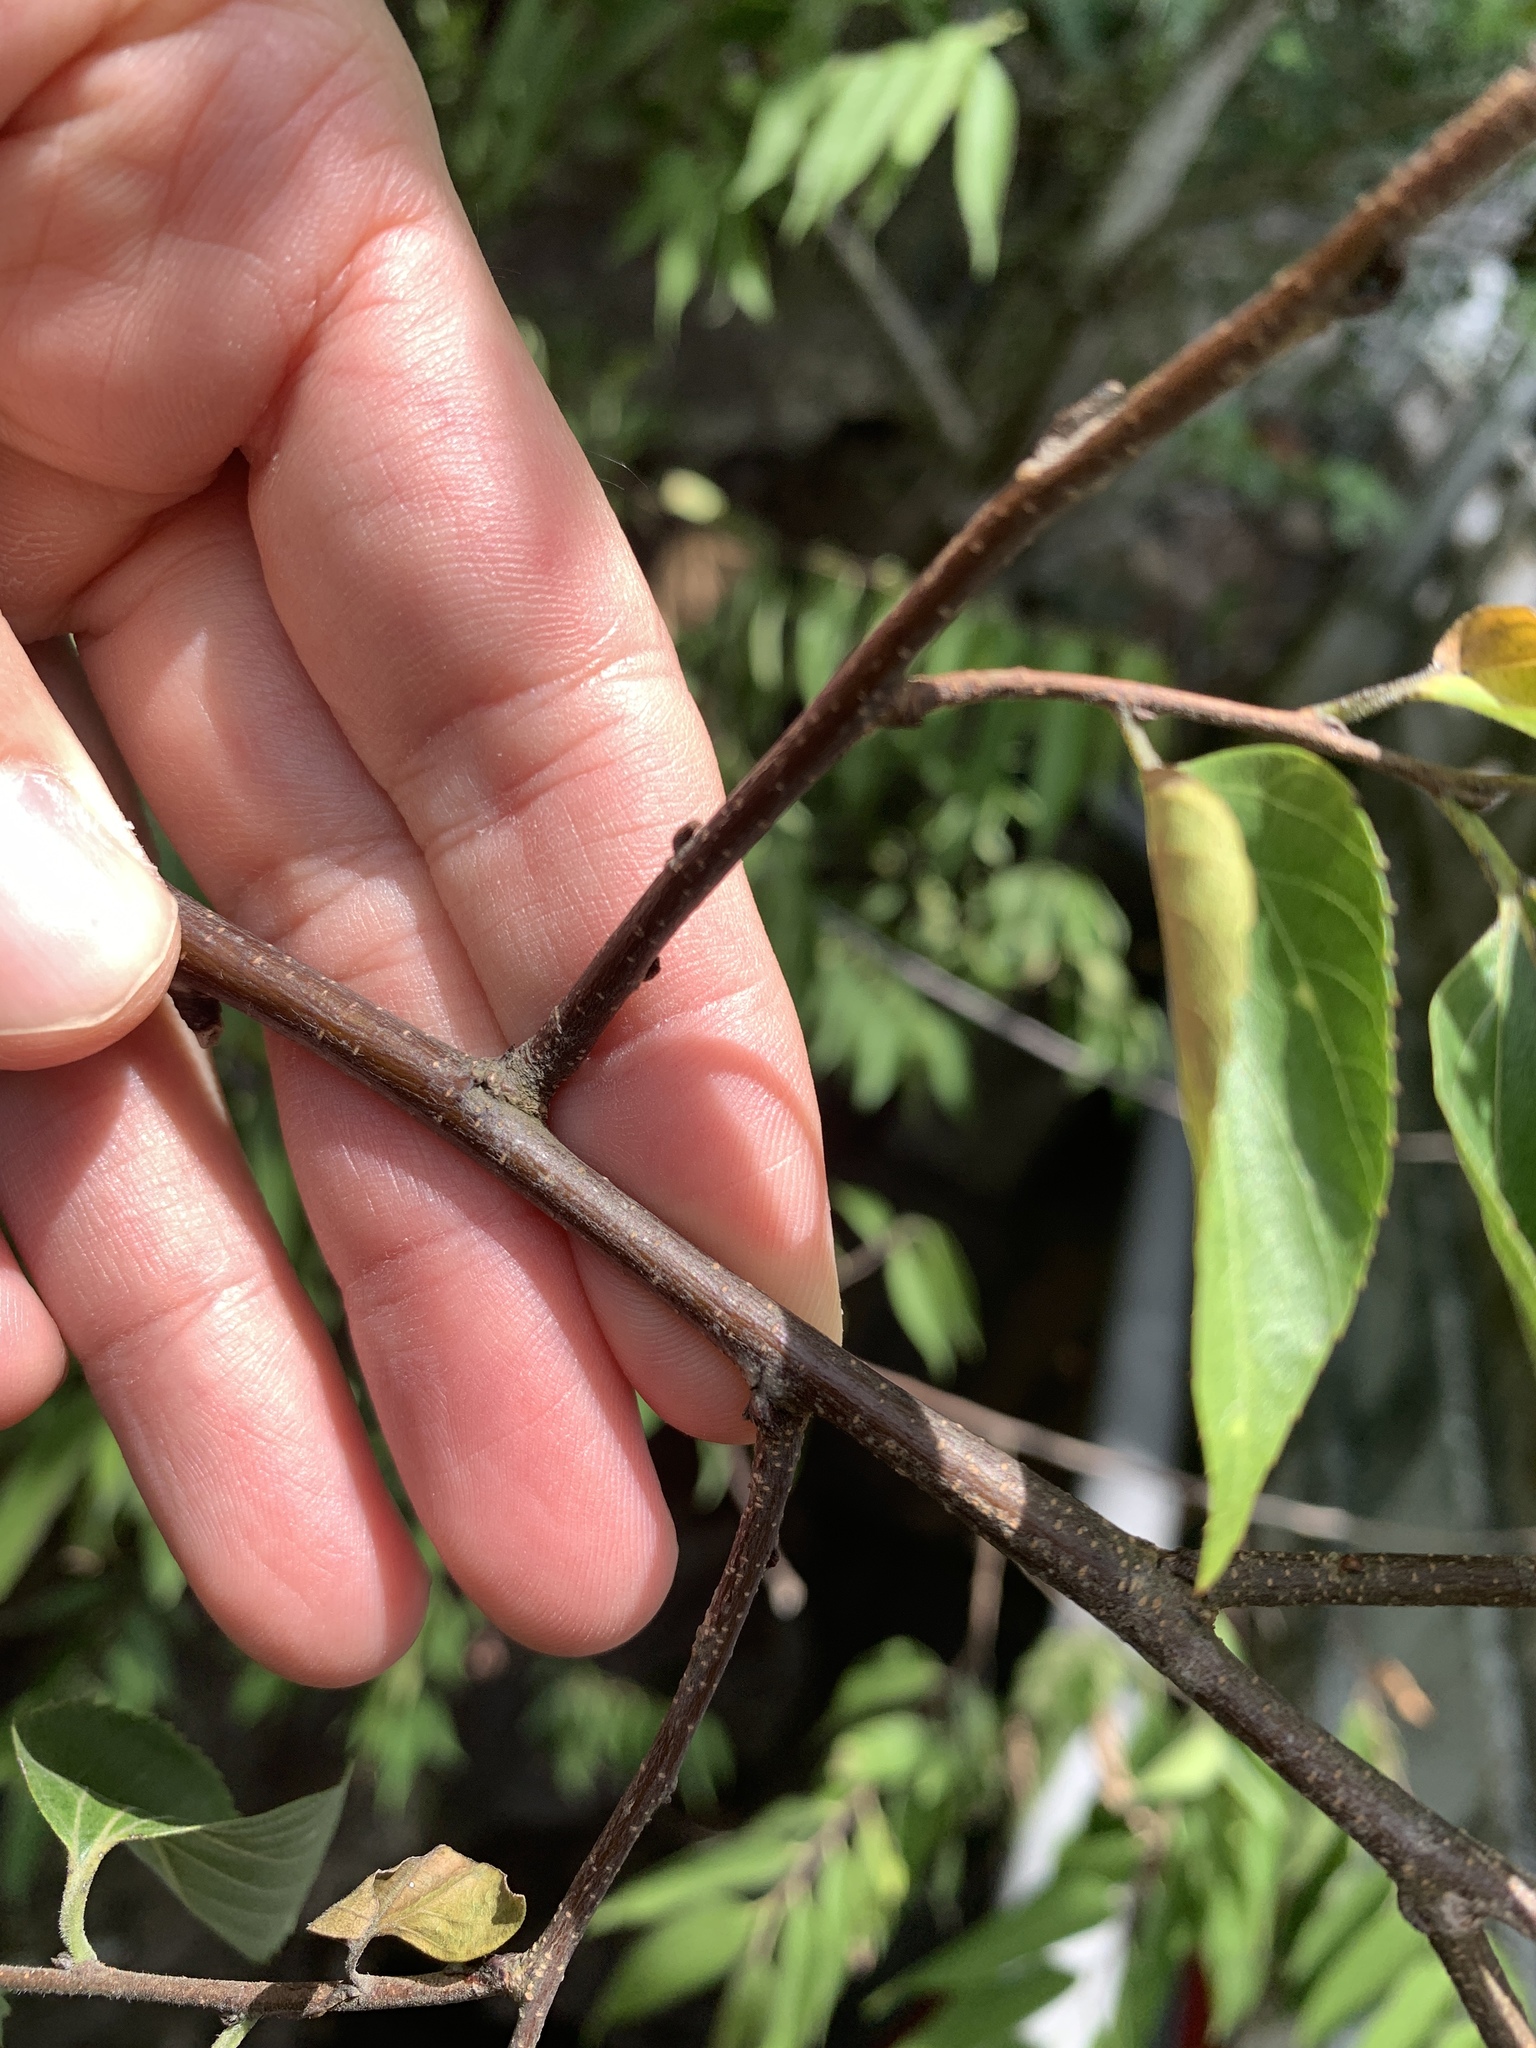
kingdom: Plantae
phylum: Tracheophyta
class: Magnoliopsida
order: Rosales
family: Cannabaceae
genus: Aphananthe
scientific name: Aphananthe aspera
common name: Mukutree
